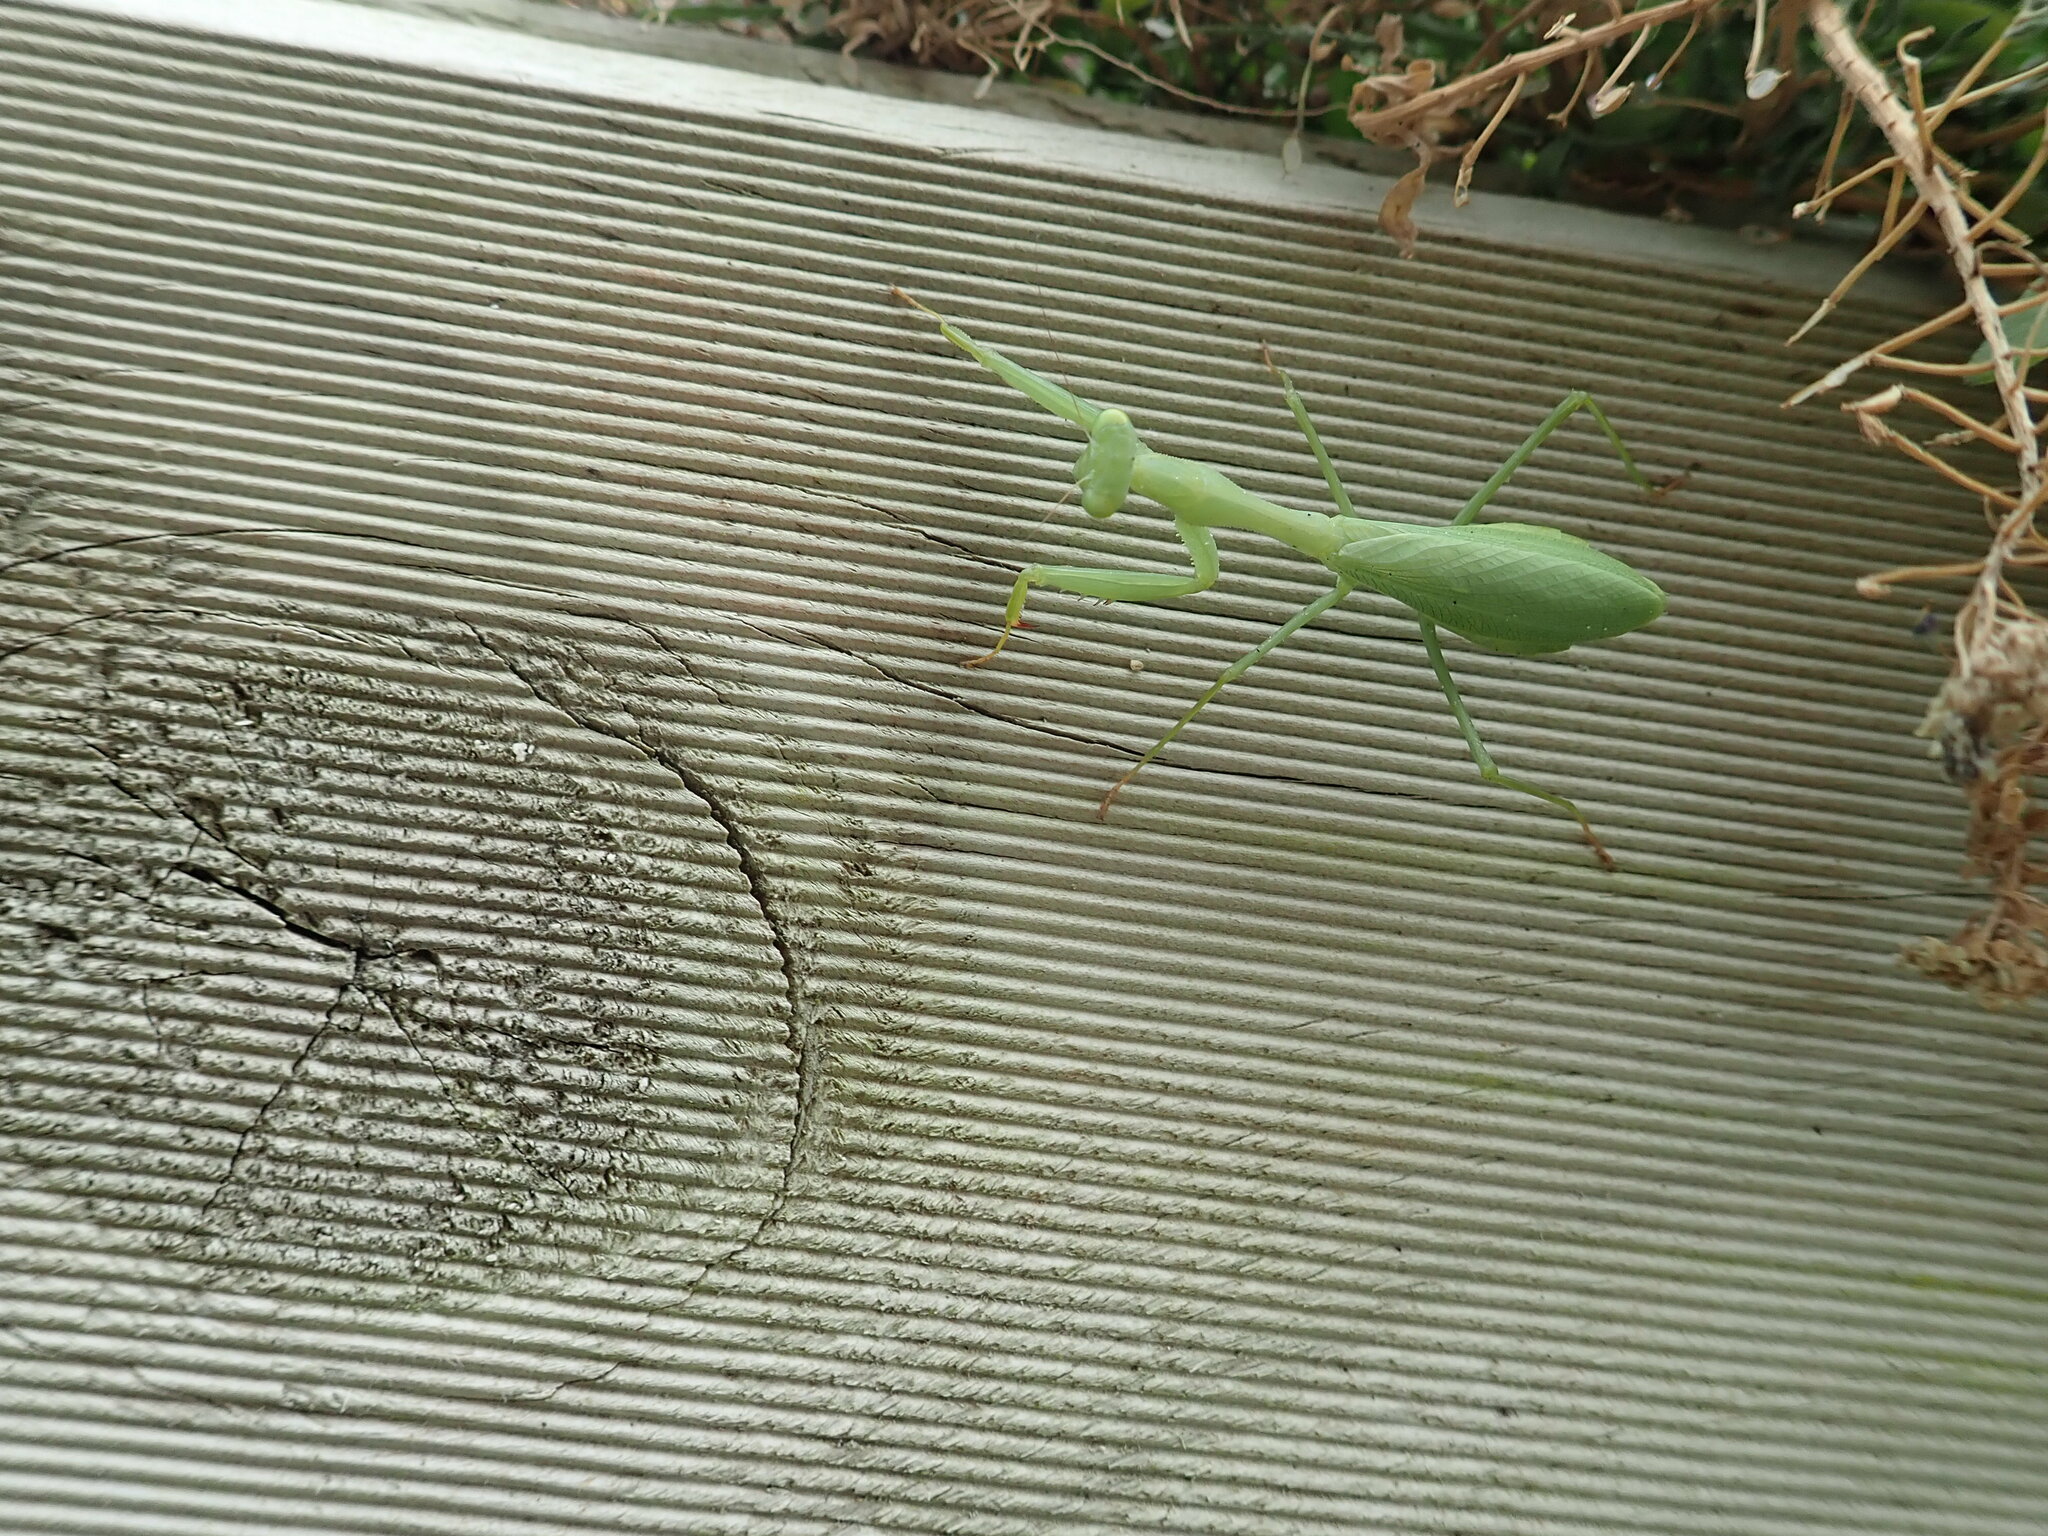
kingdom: Animalia
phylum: Arthropoda
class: Insecta
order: Mantodea
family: Miomantidae
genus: Miomantis
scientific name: Miomantis caffra
